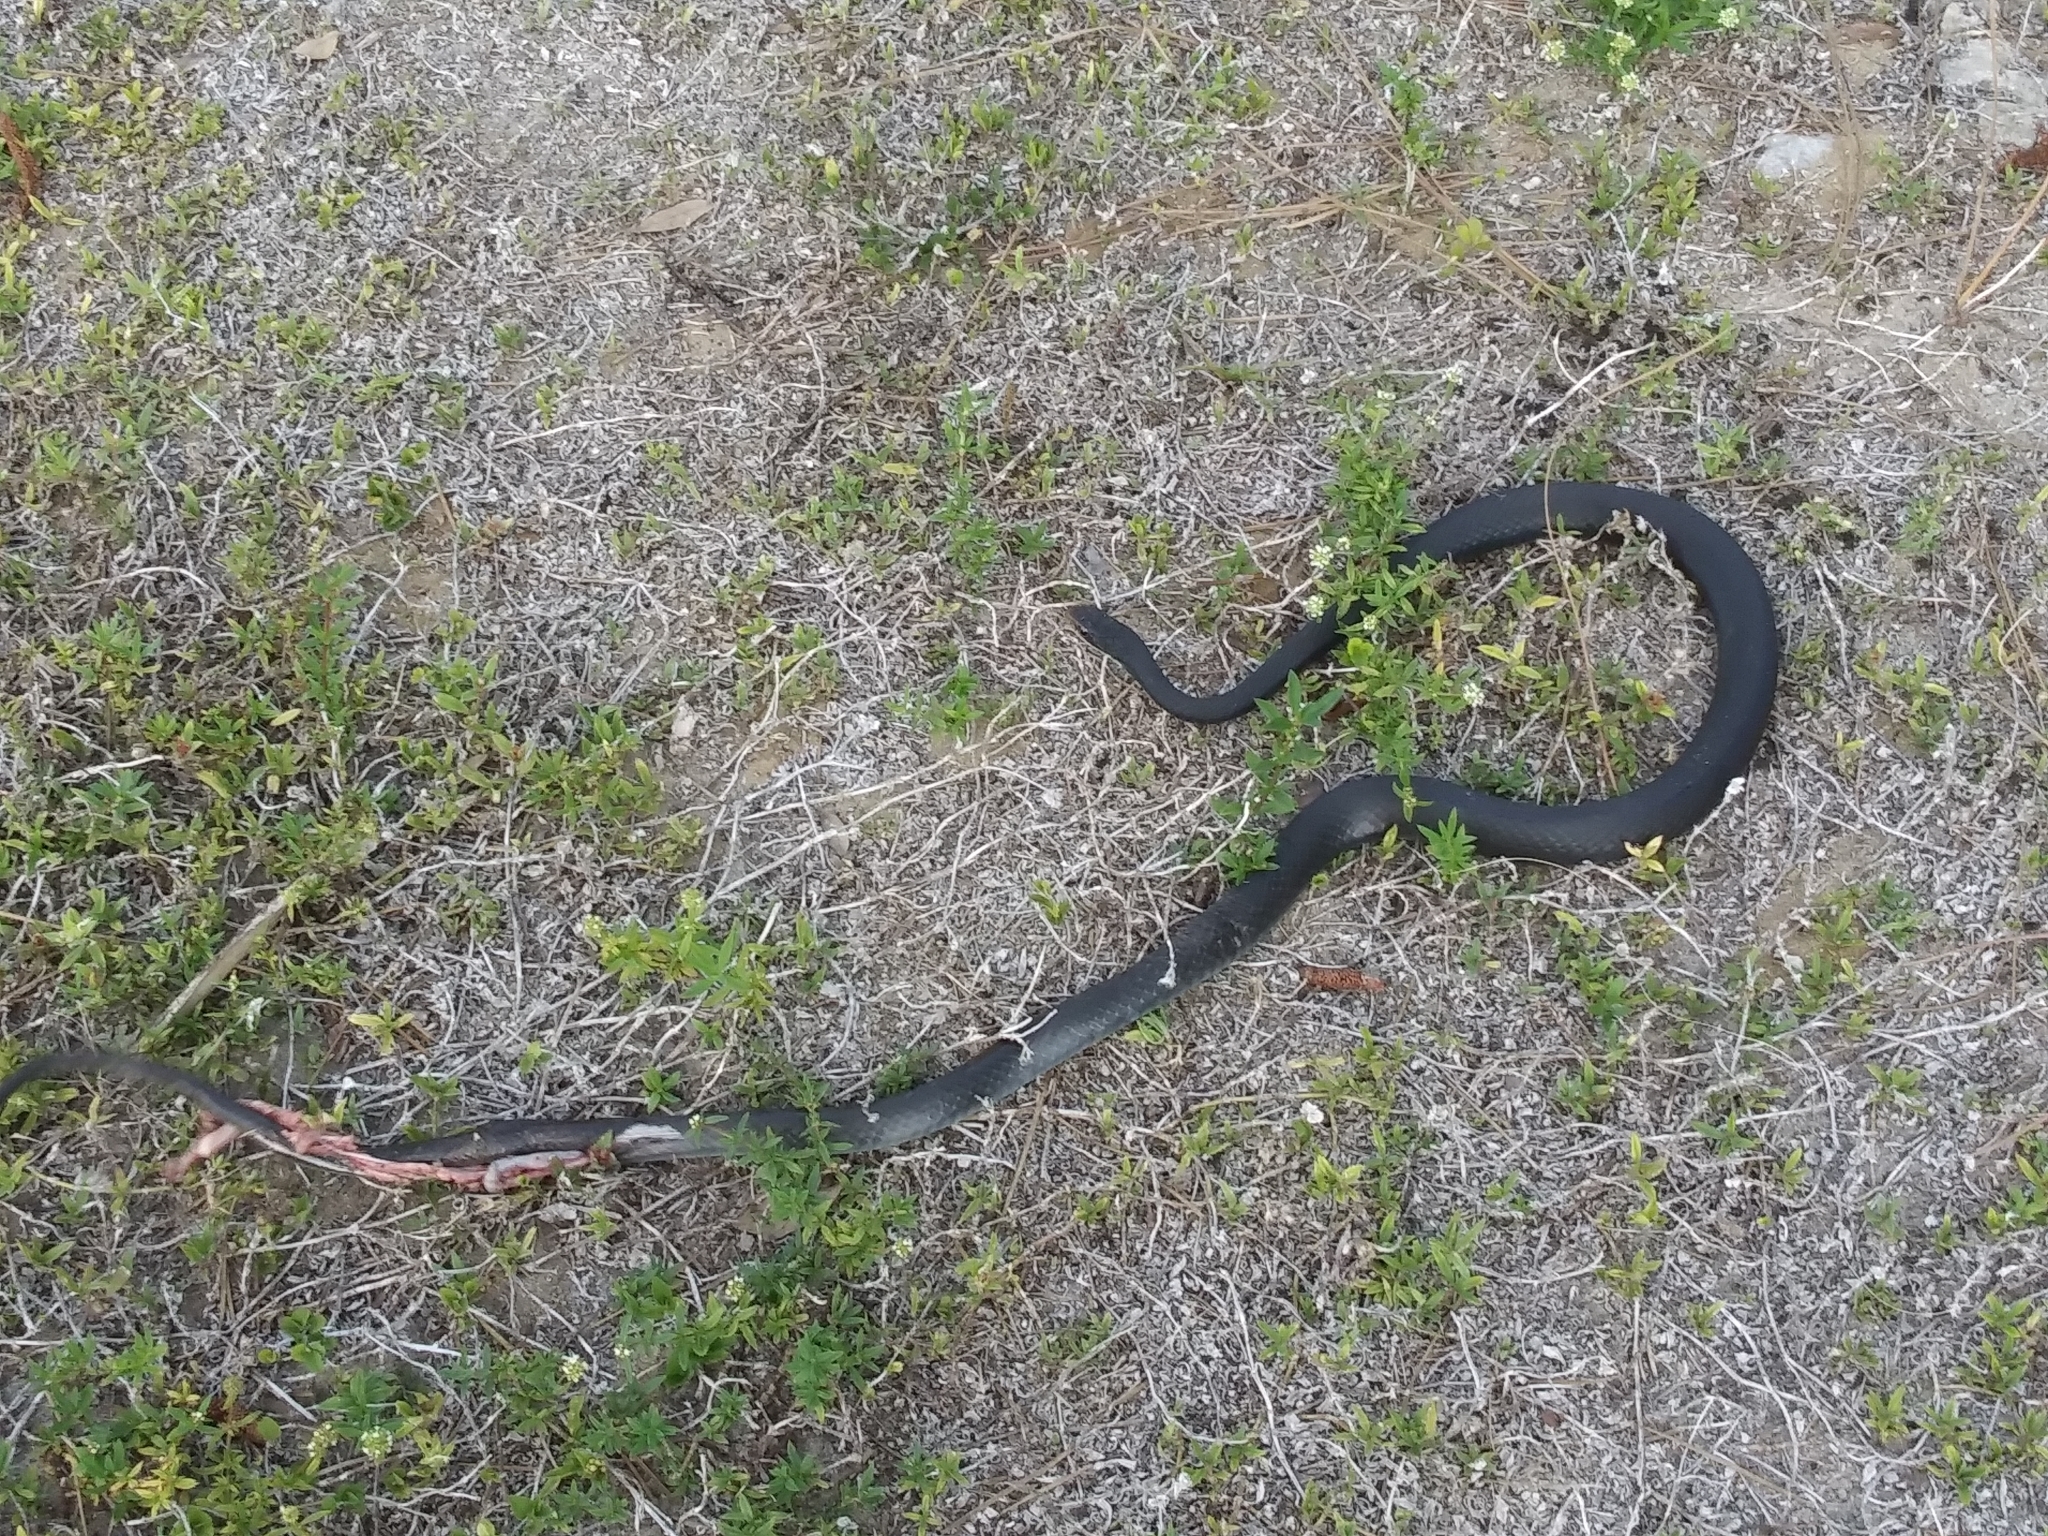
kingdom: Animalia
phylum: Chordata
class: Squamata
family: Colubridae
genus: Coluber
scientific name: Coluber constrictor
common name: Eastern racer
